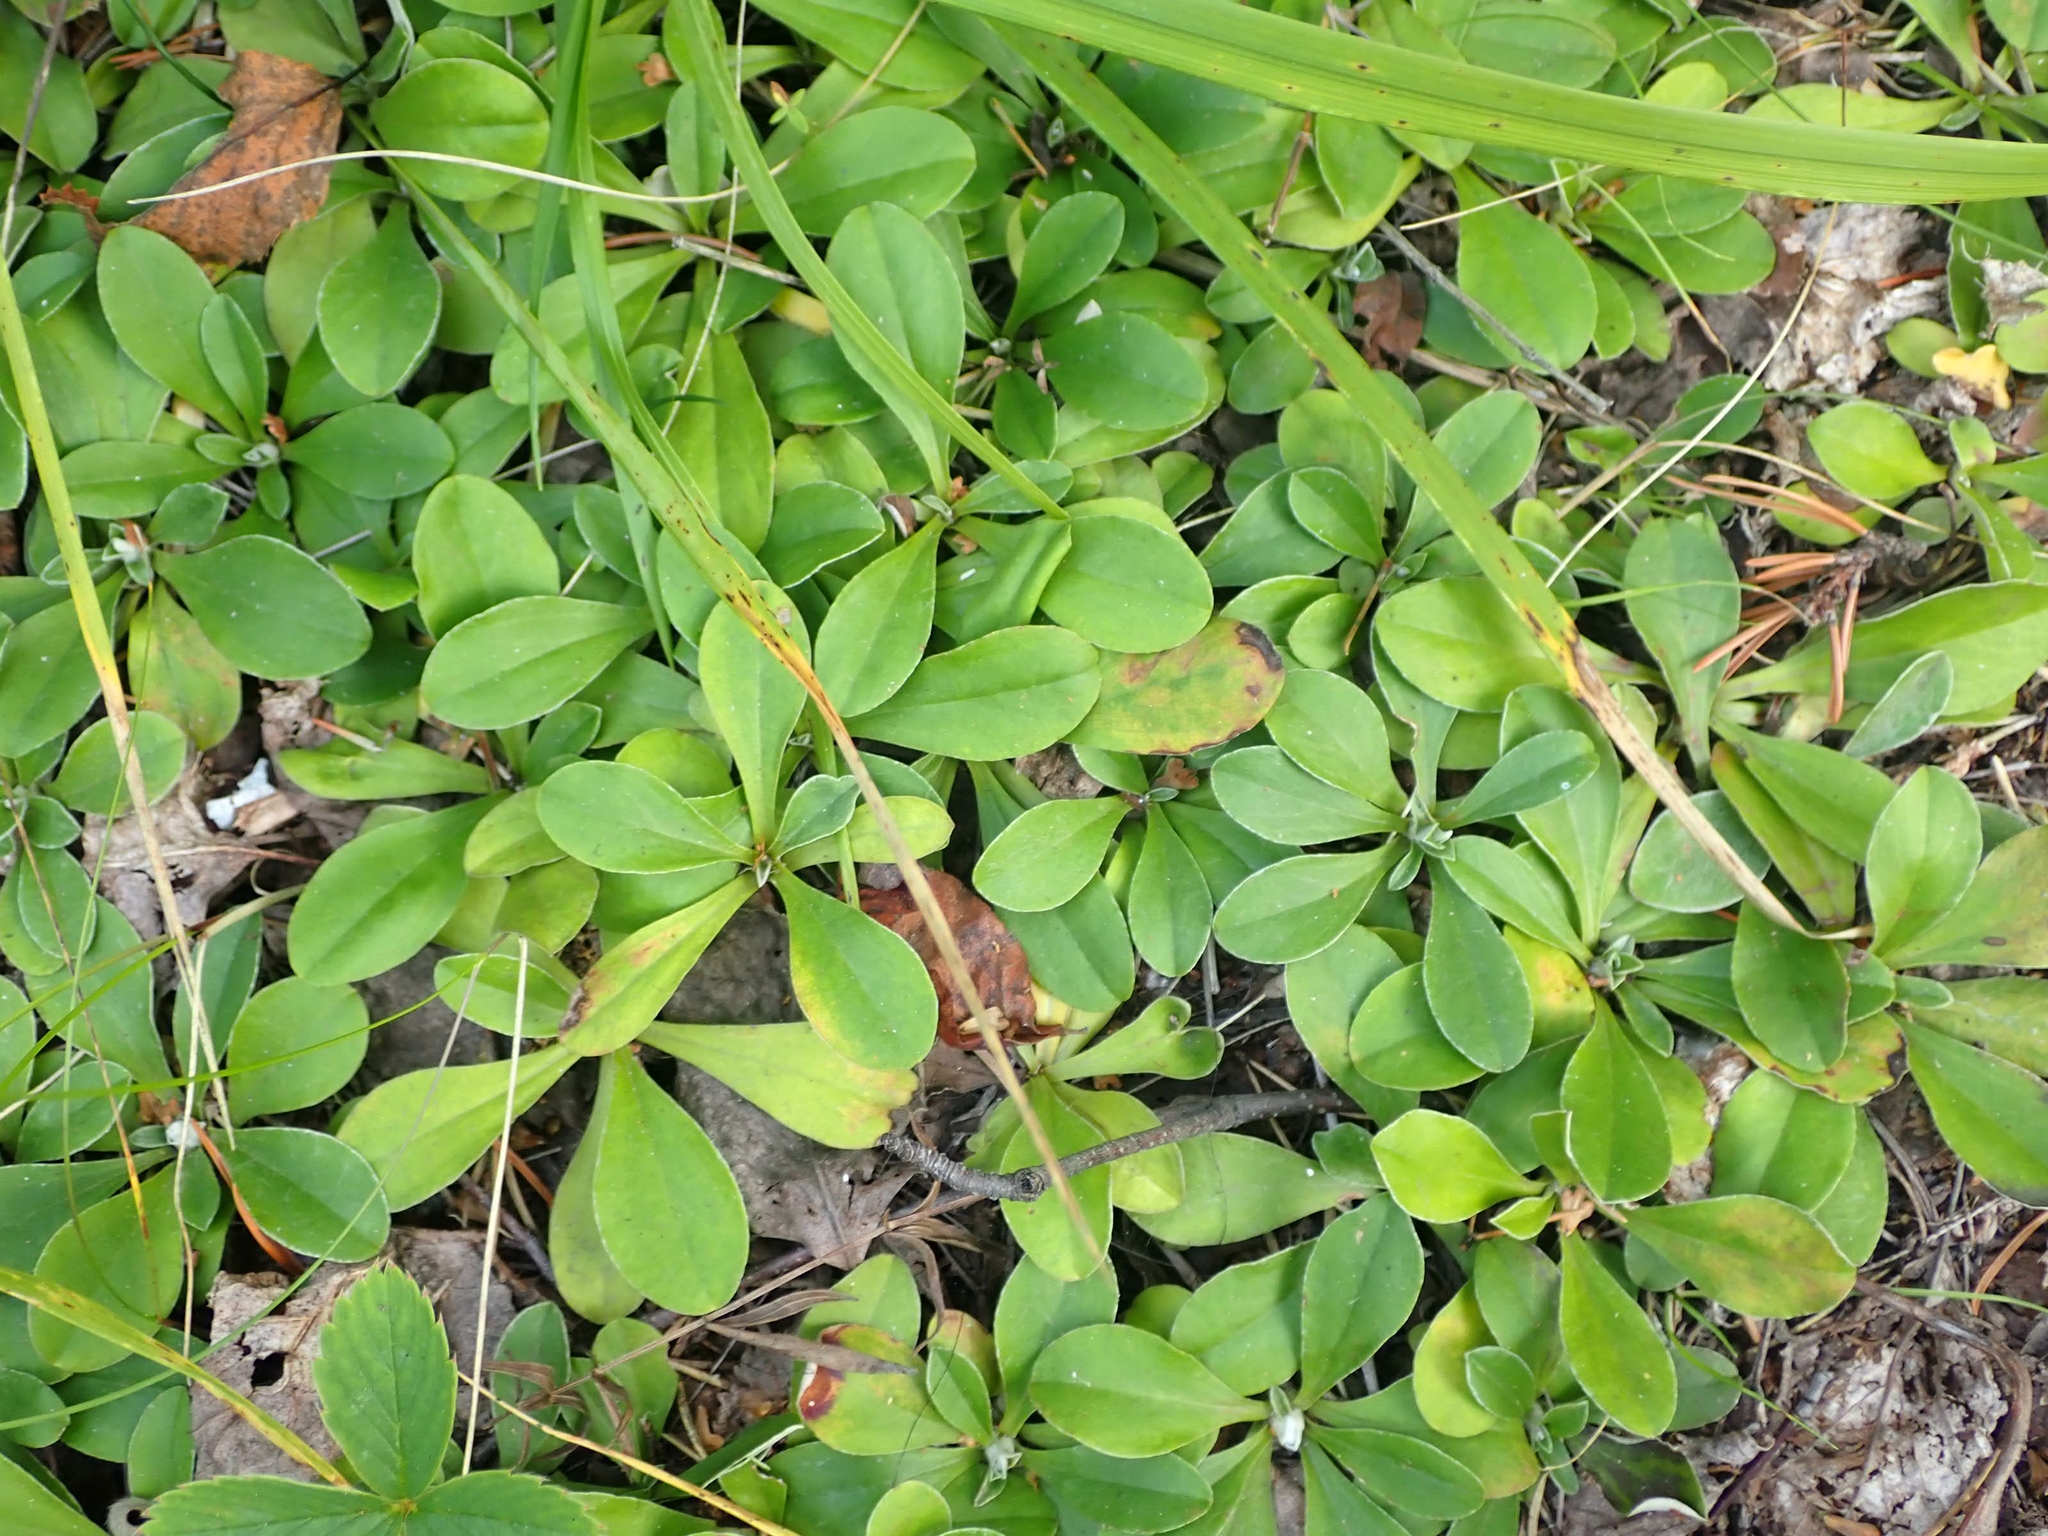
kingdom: Plantae
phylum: Tracheophyta
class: Magnoliopsida
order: Asterales
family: Asteraceae
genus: Antennaria
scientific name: Antennaria howellii
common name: Howell's pussytoes
